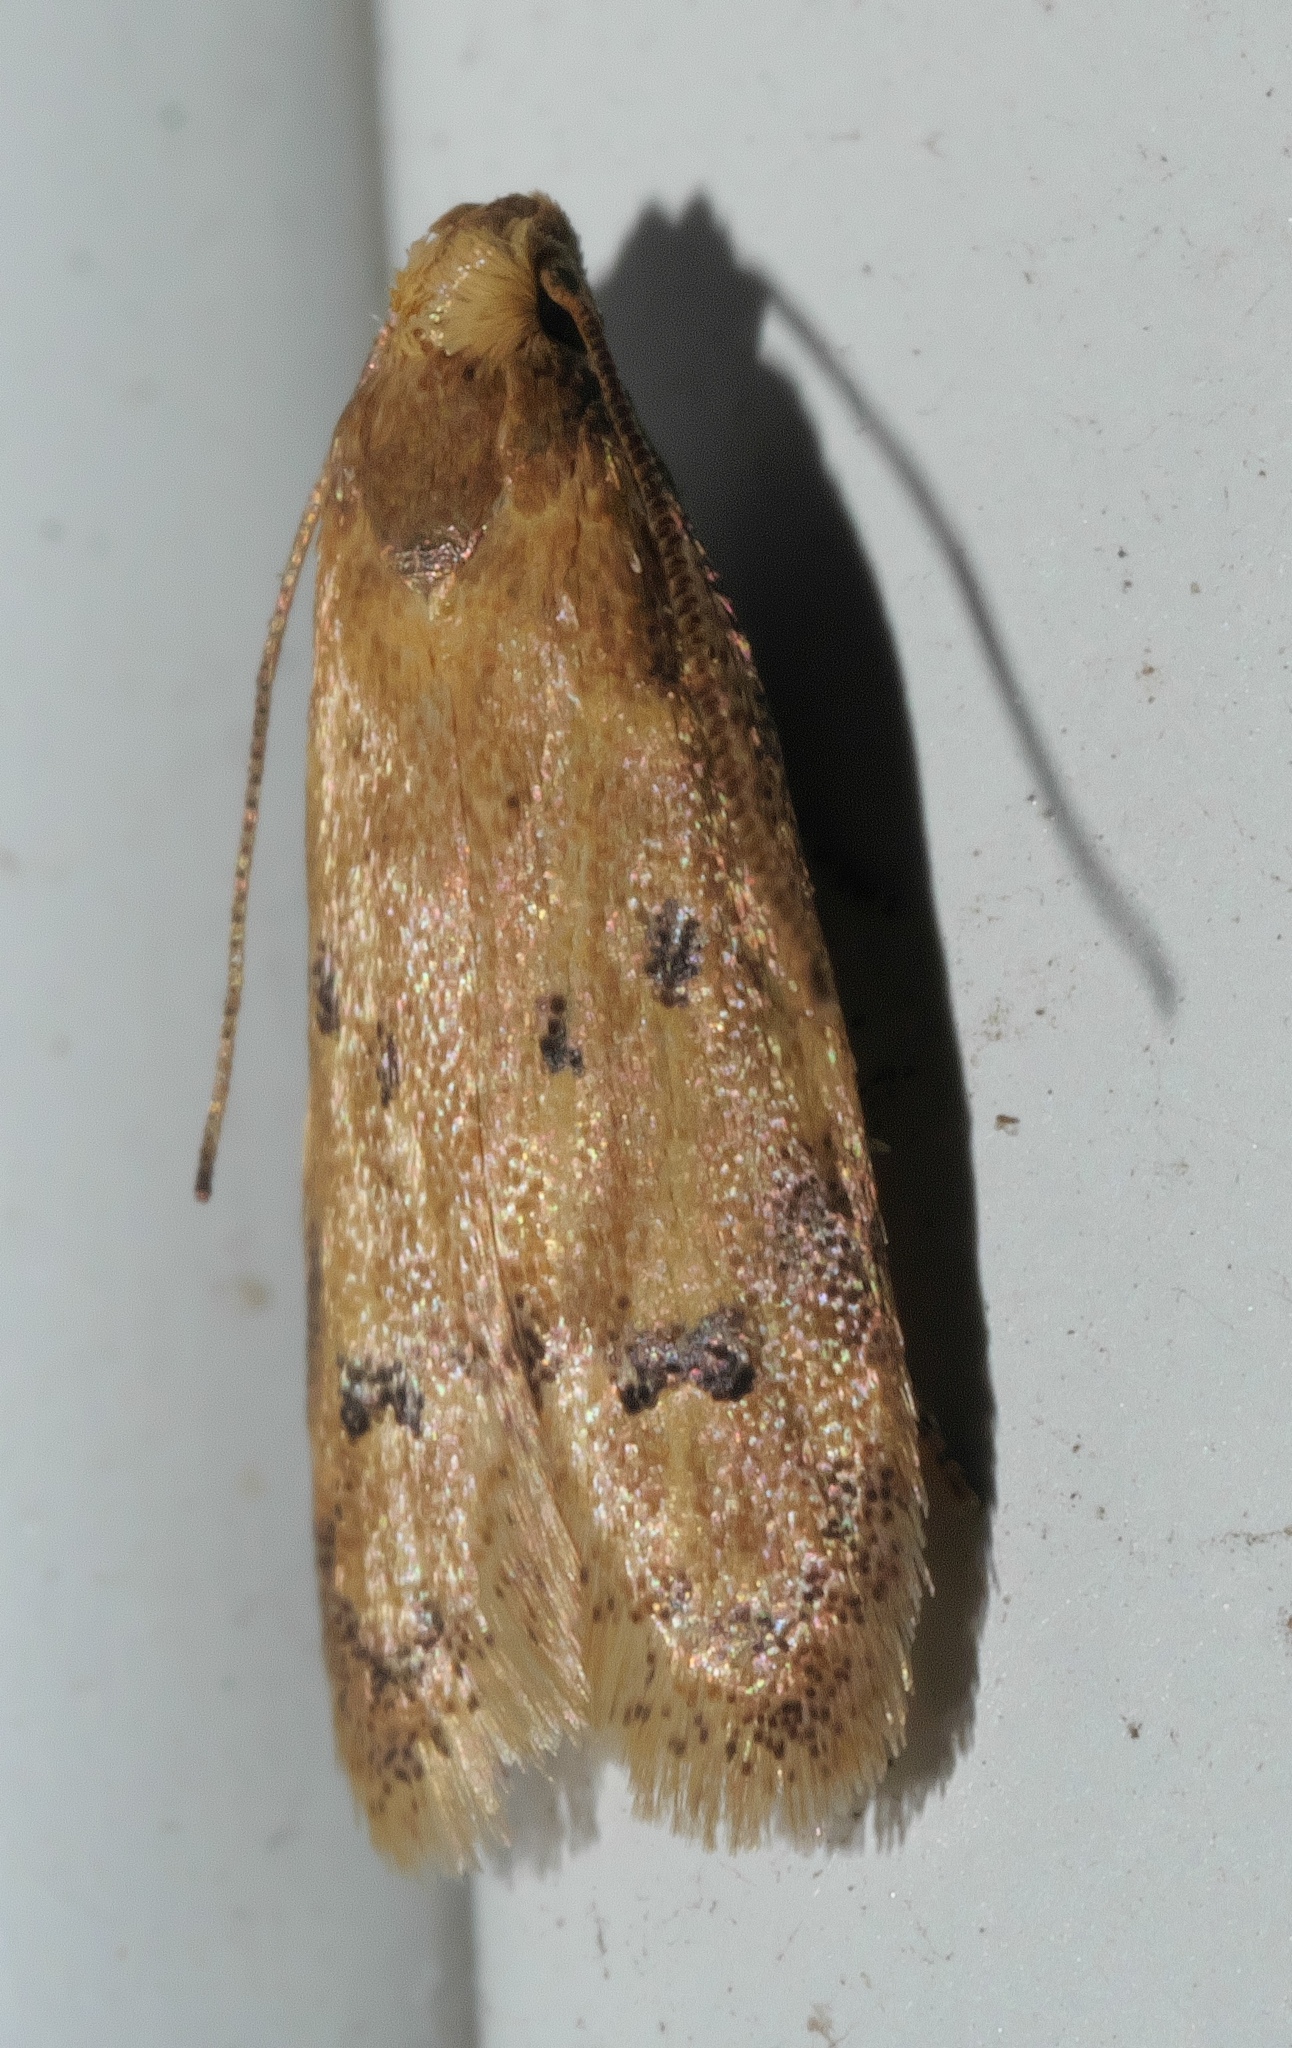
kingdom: Animalia
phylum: Arthropoda
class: Insecta
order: Lepidoptera
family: Autostichidae
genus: Gerdana
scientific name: Gerdana caritella
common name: Gerdana moth
